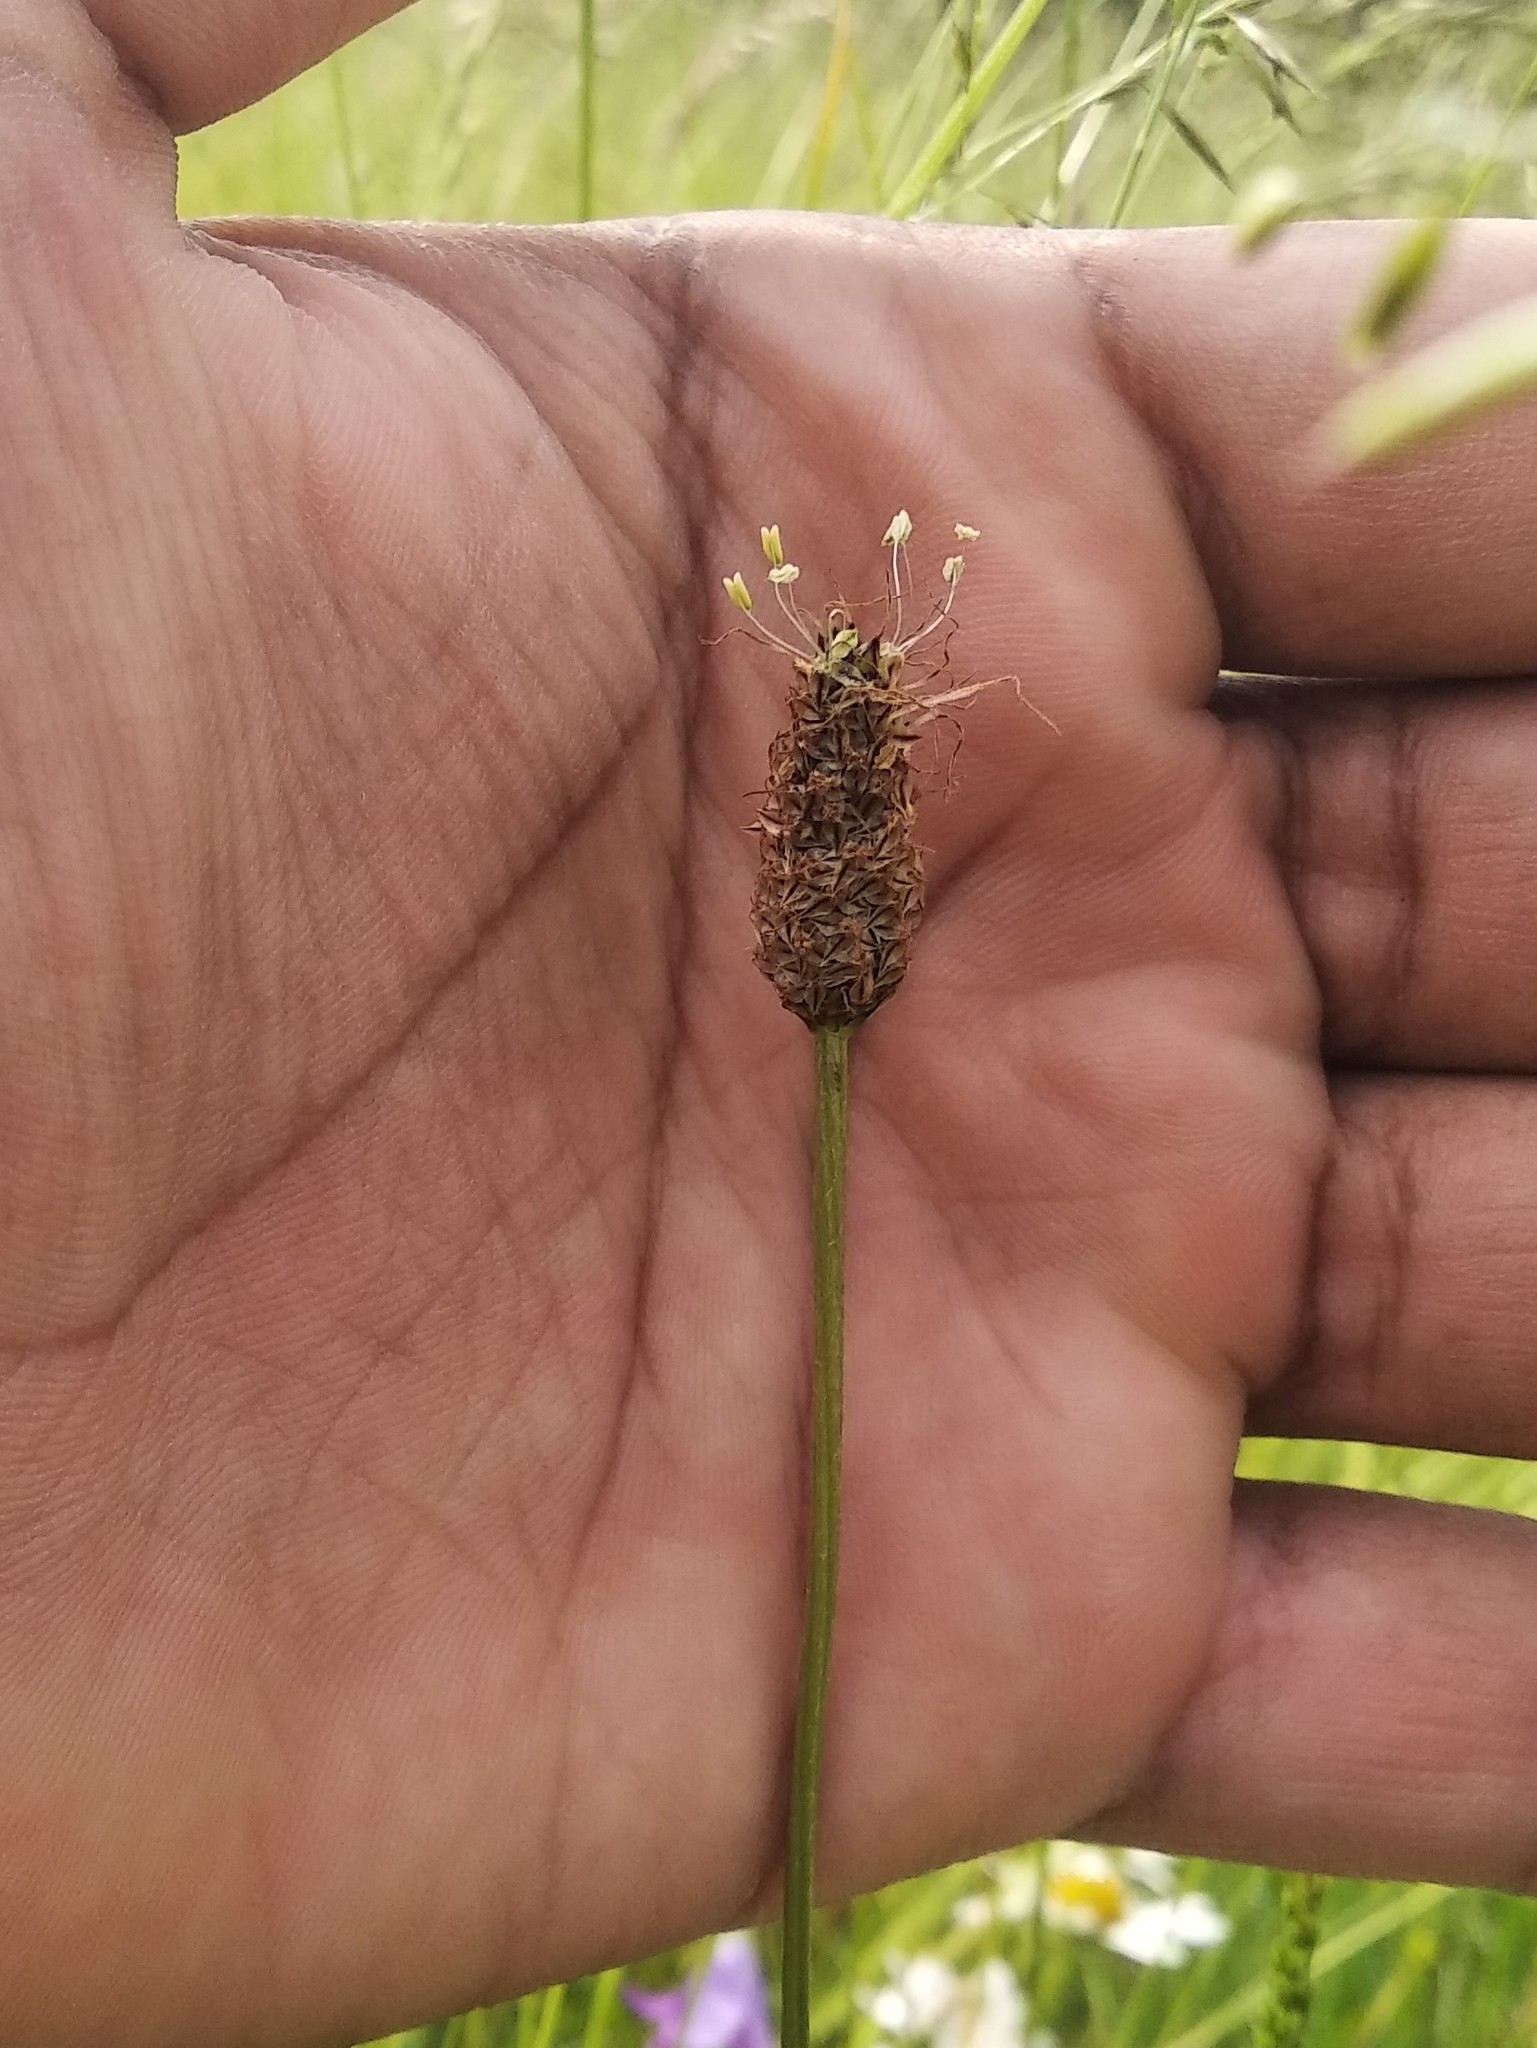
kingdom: Plantae
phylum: Tracheophyta
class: Magnoliopsida
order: Lamiales
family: Plantaginaceae
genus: Plantago
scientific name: Plantago lanceolata
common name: Ribwort plantain
